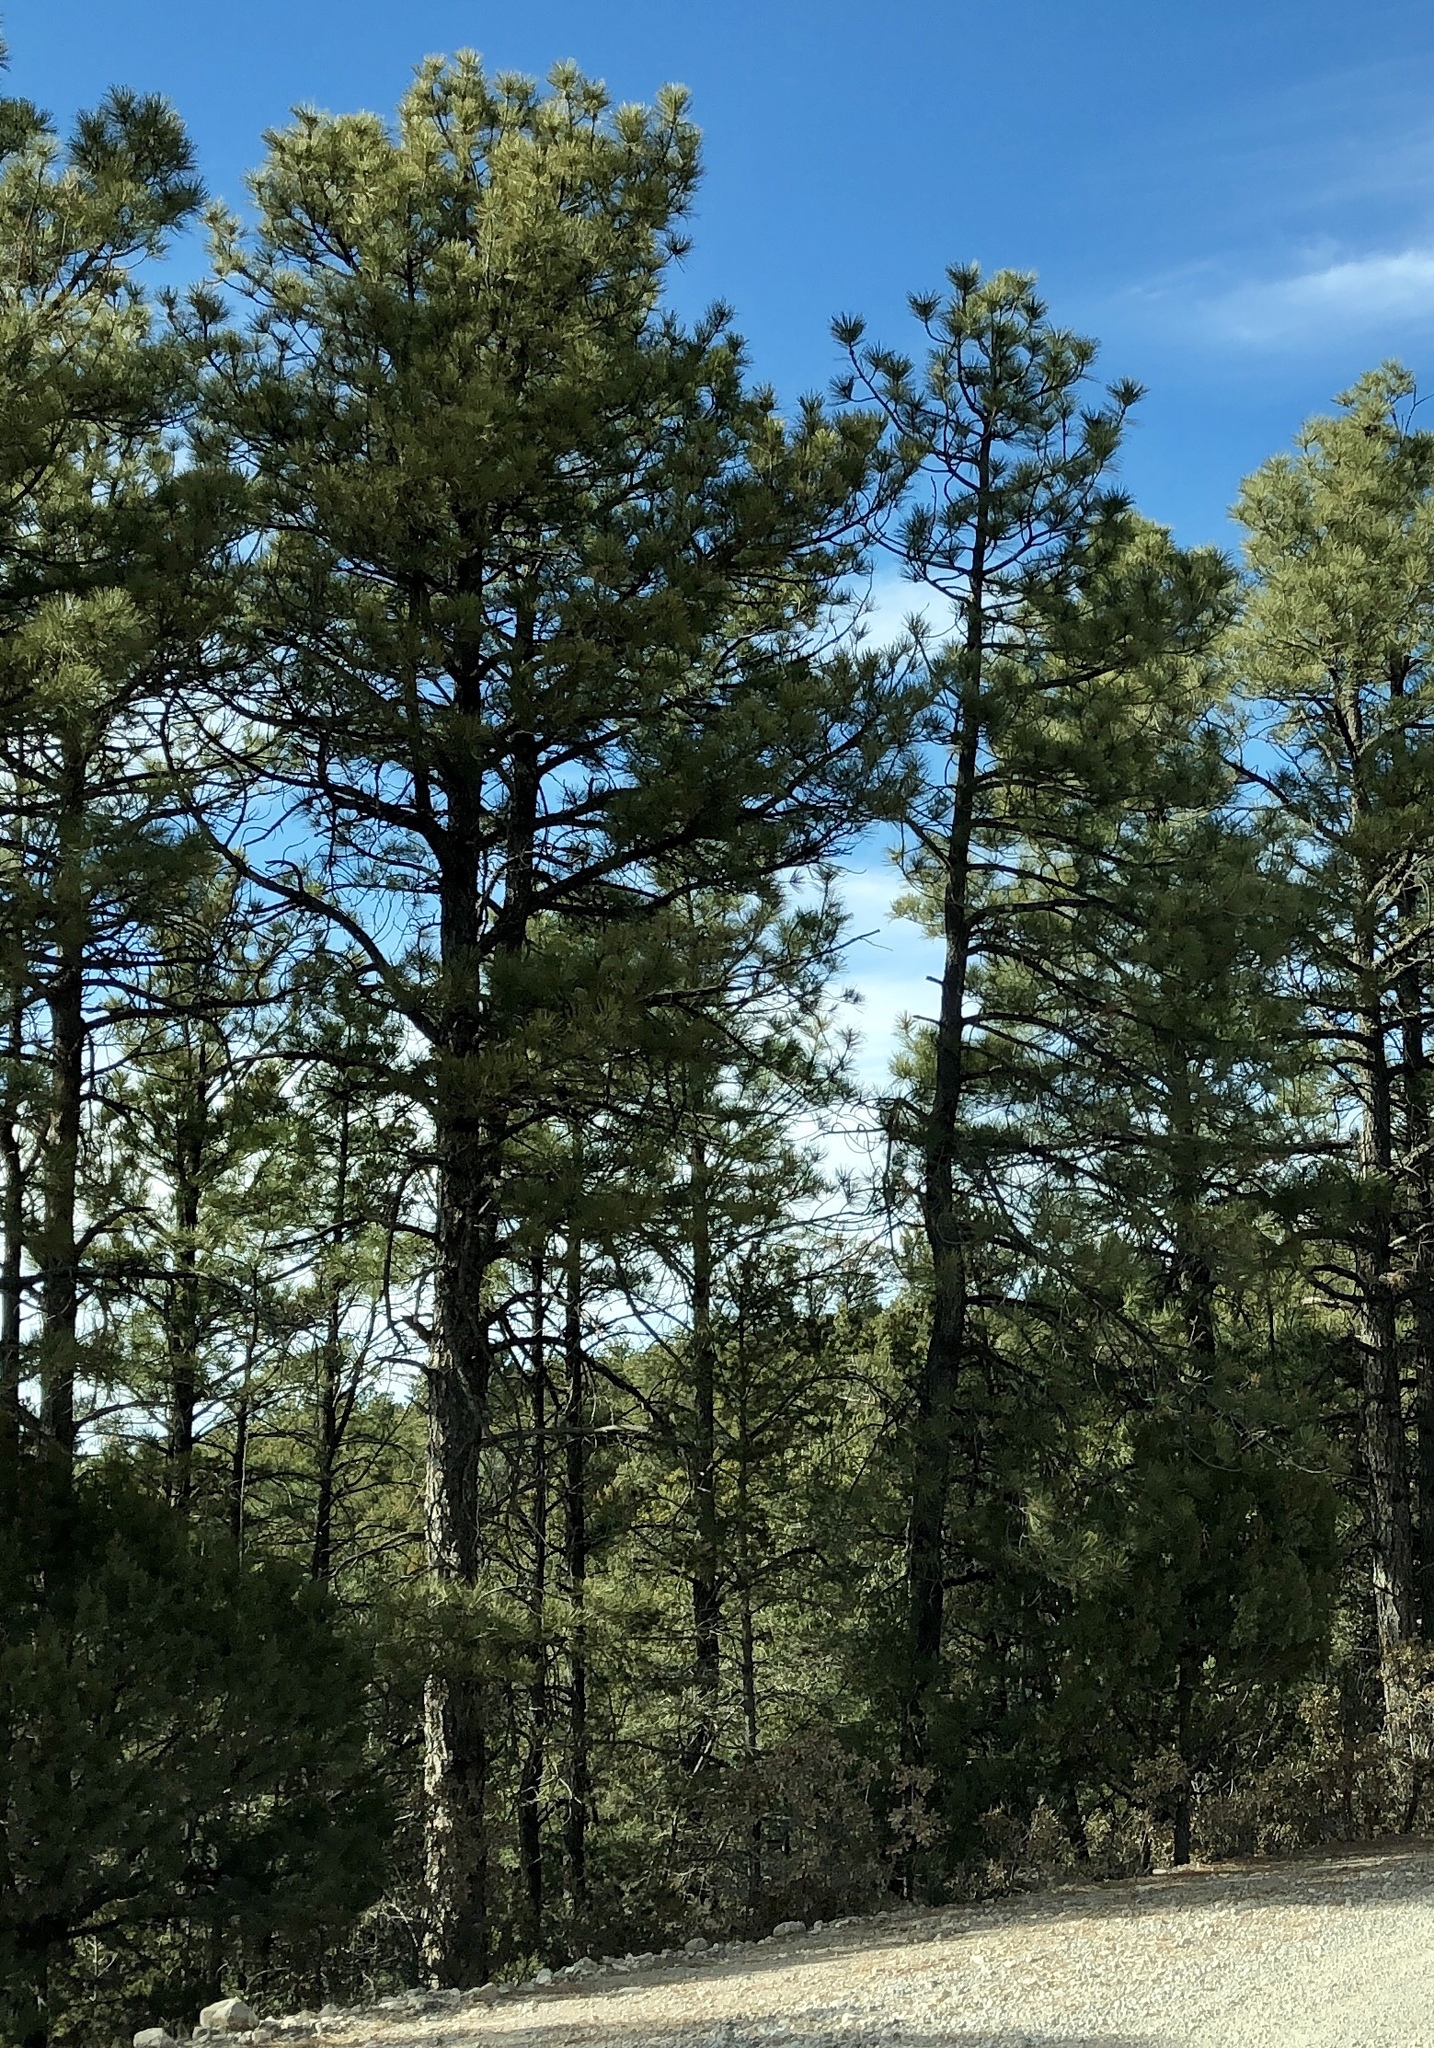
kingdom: Plantae
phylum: Tracheophyta
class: Pinopsida
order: Pinales
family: Pinaceae
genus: Pinus
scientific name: Pinus ponderosa
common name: Western yellow-pine
